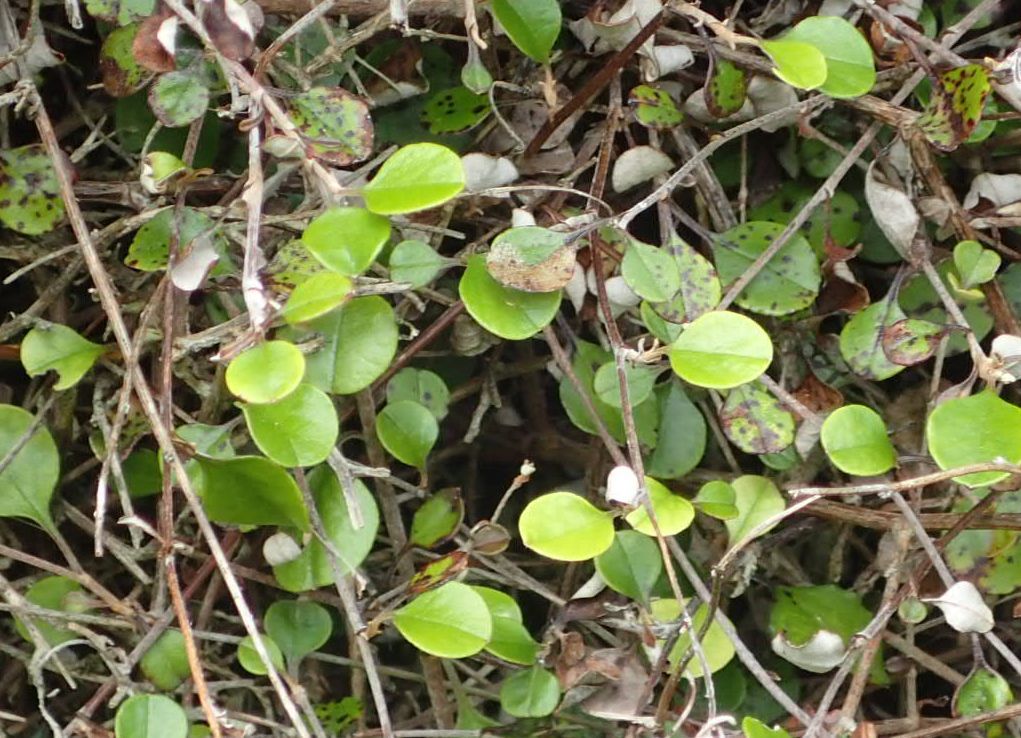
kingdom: Plantae
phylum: Tracheophyta
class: Magnoliopsida
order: Asterales
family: Asteraceae
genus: Ozothamnus
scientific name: Ozothamnus glomeratus
